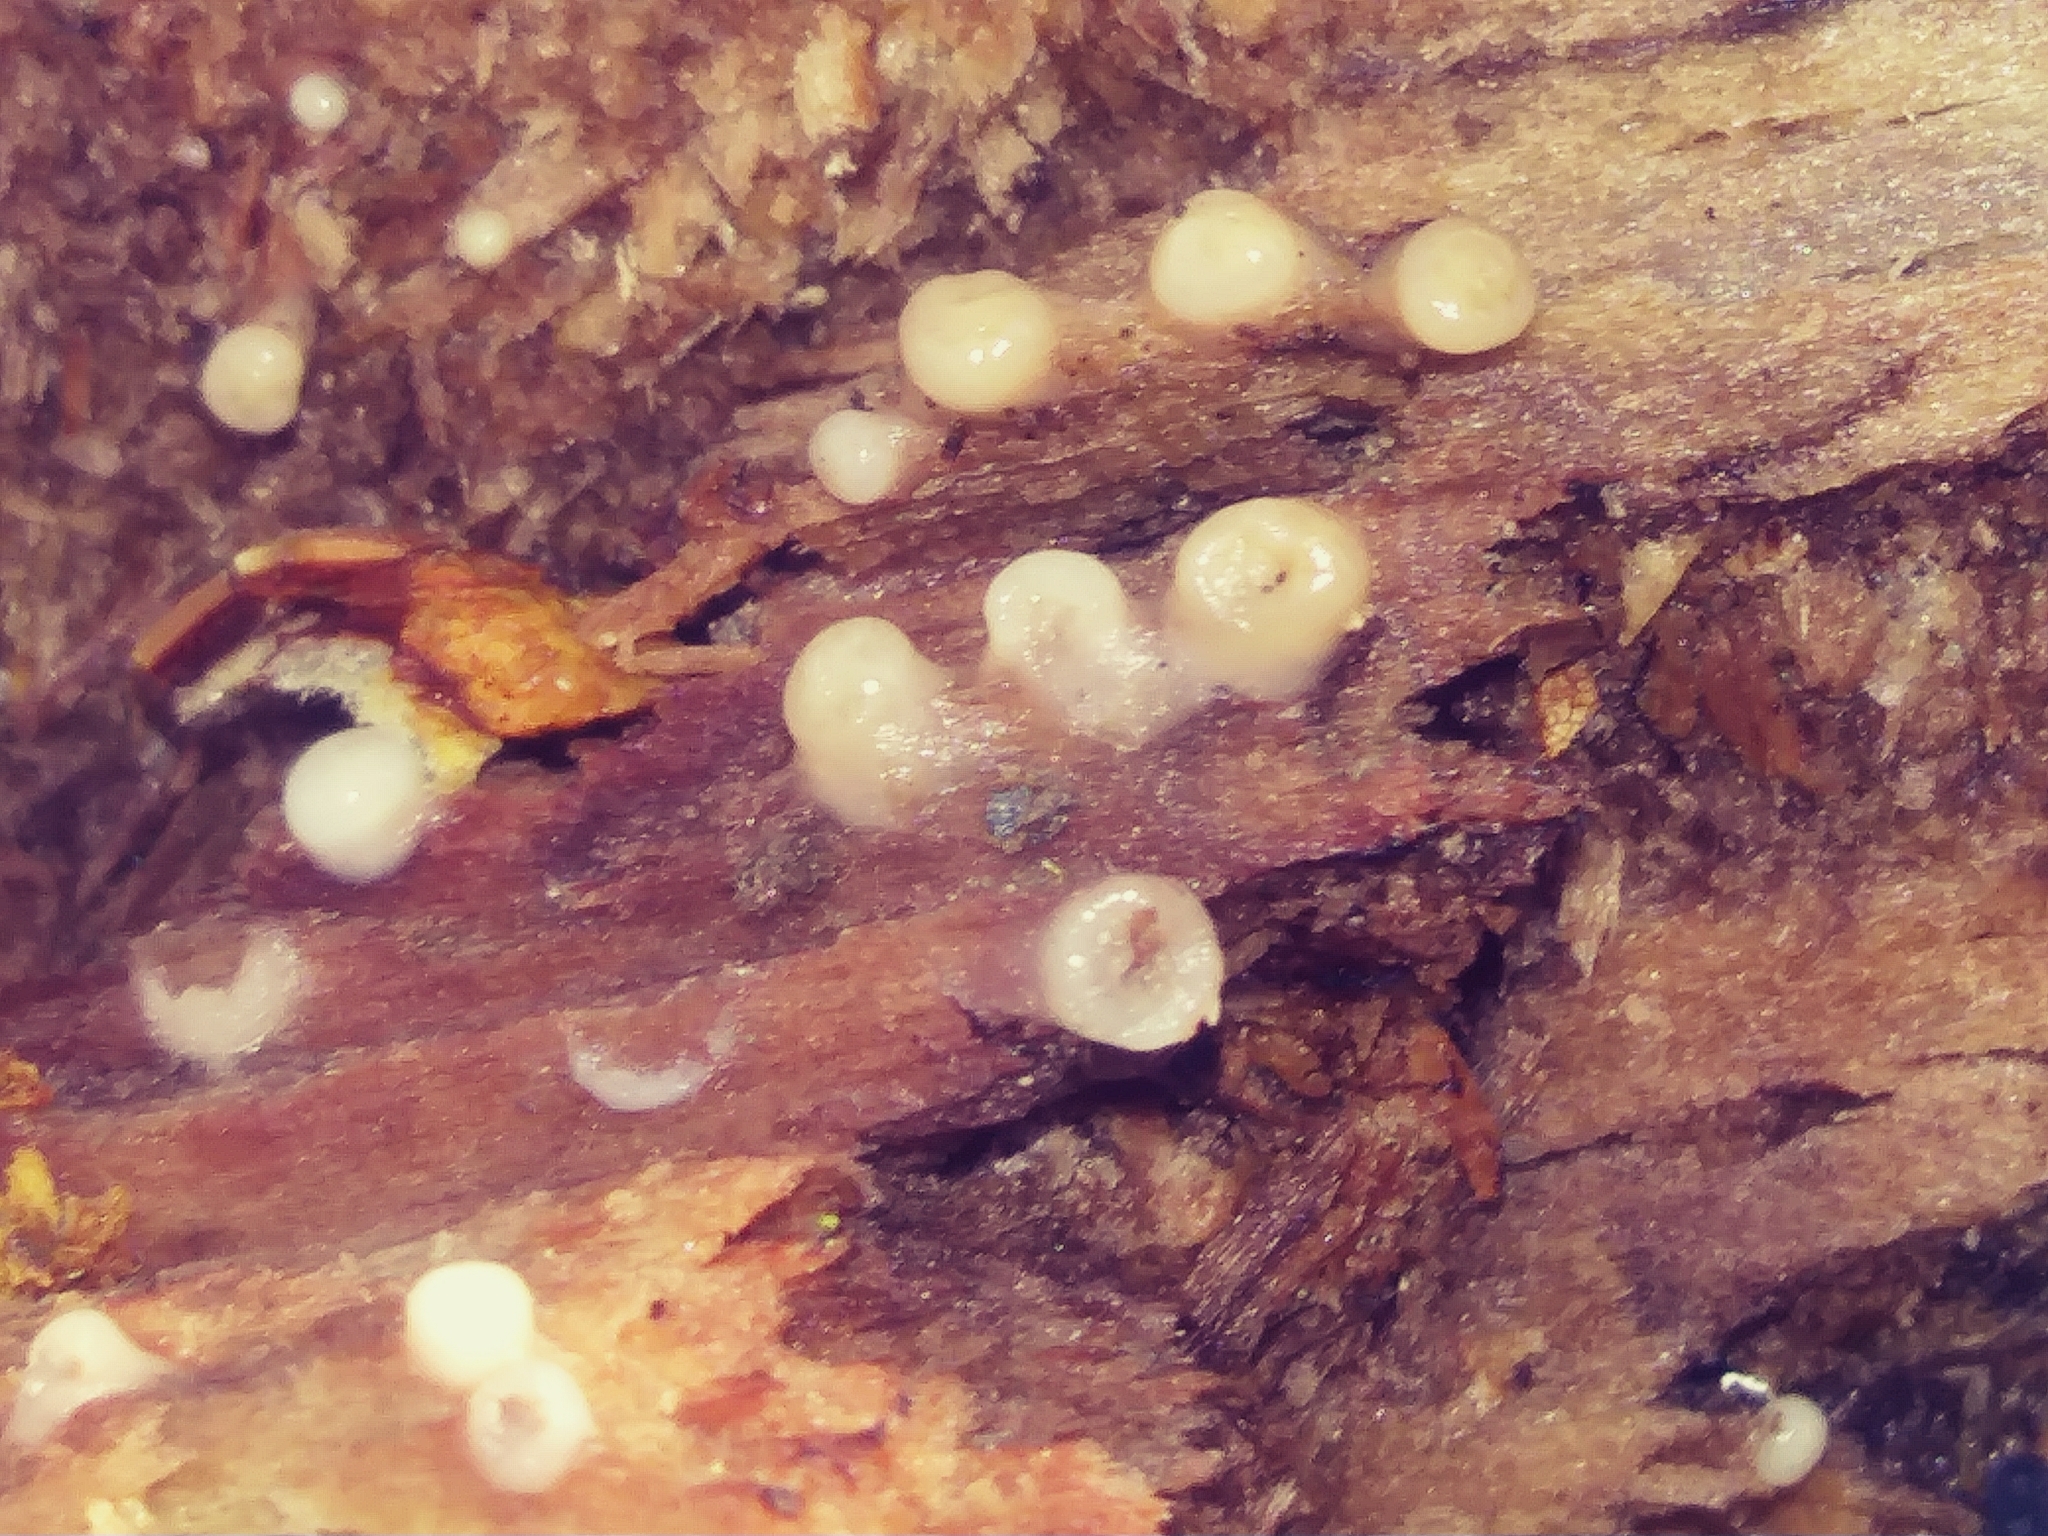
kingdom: Fungi
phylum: Basidiomycota
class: Atractiellomycetes
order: Atractiellales
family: Phleogenaceae
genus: Helicogloea
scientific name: Helicogloea compressa
